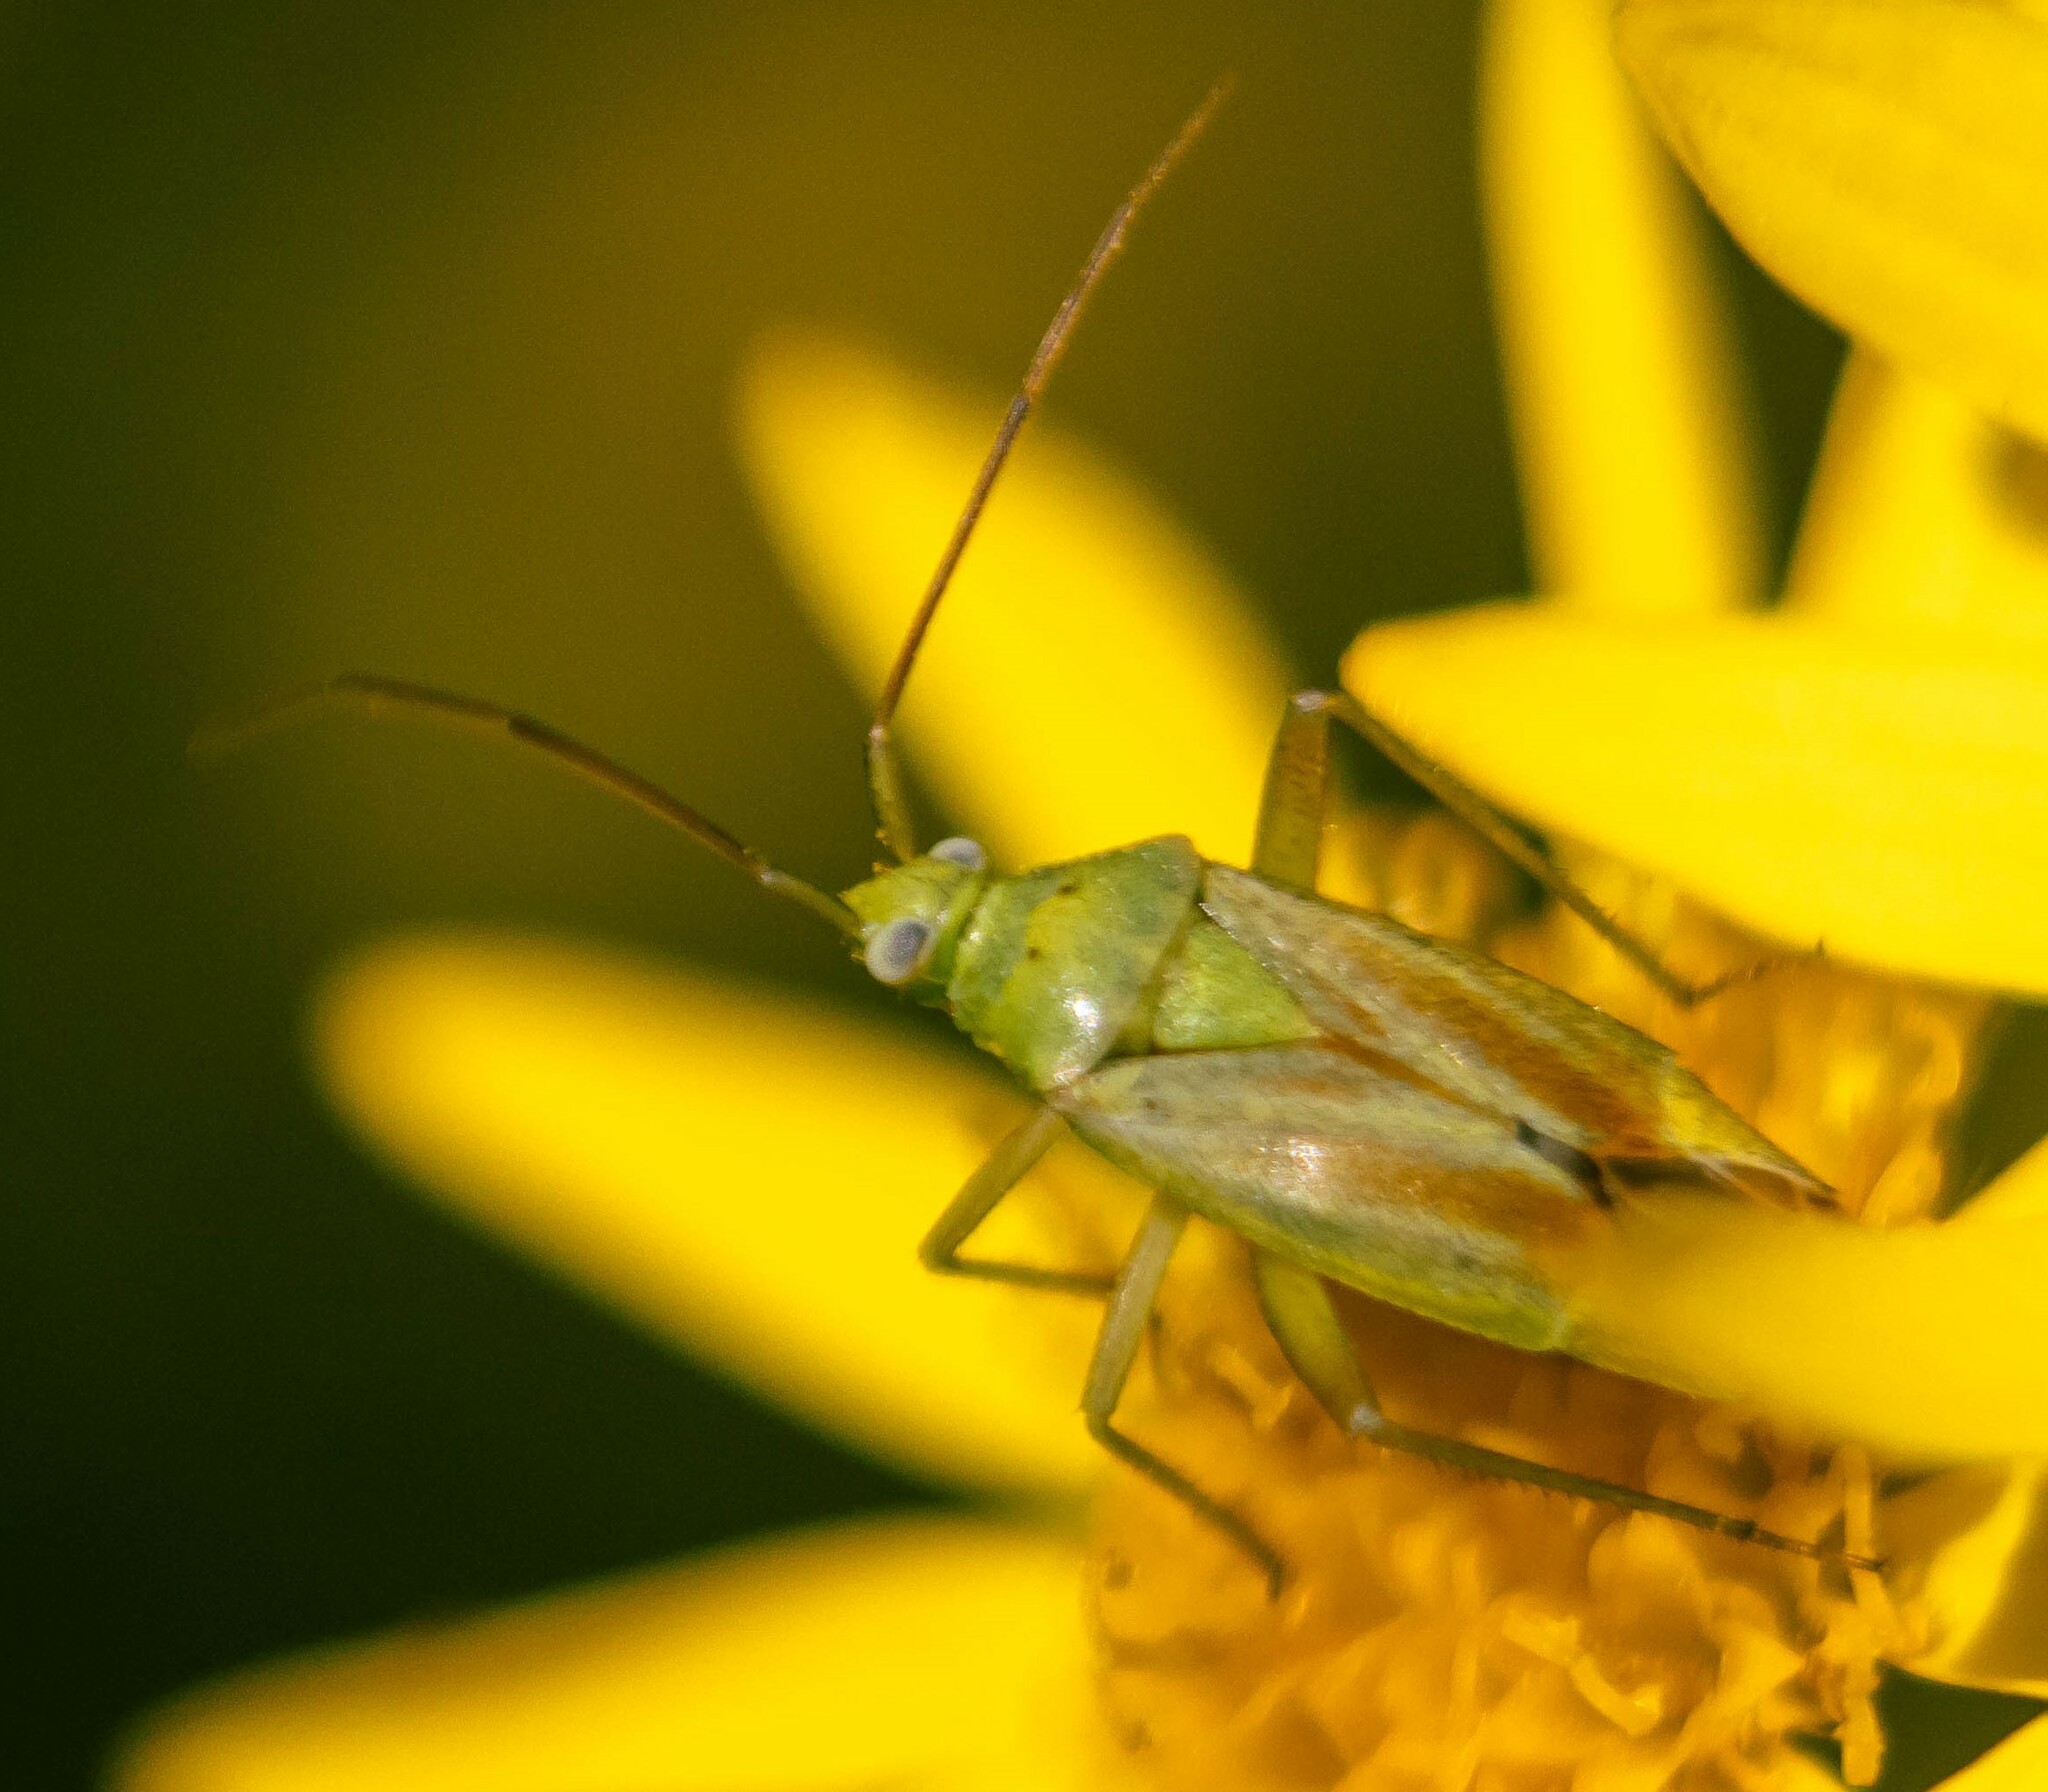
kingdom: Animalia
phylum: Arthropoda
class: Insecta
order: Hemiptera
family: Miridae
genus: Closterotomus
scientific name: Closterotomus norvegicus
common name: Plant bug
